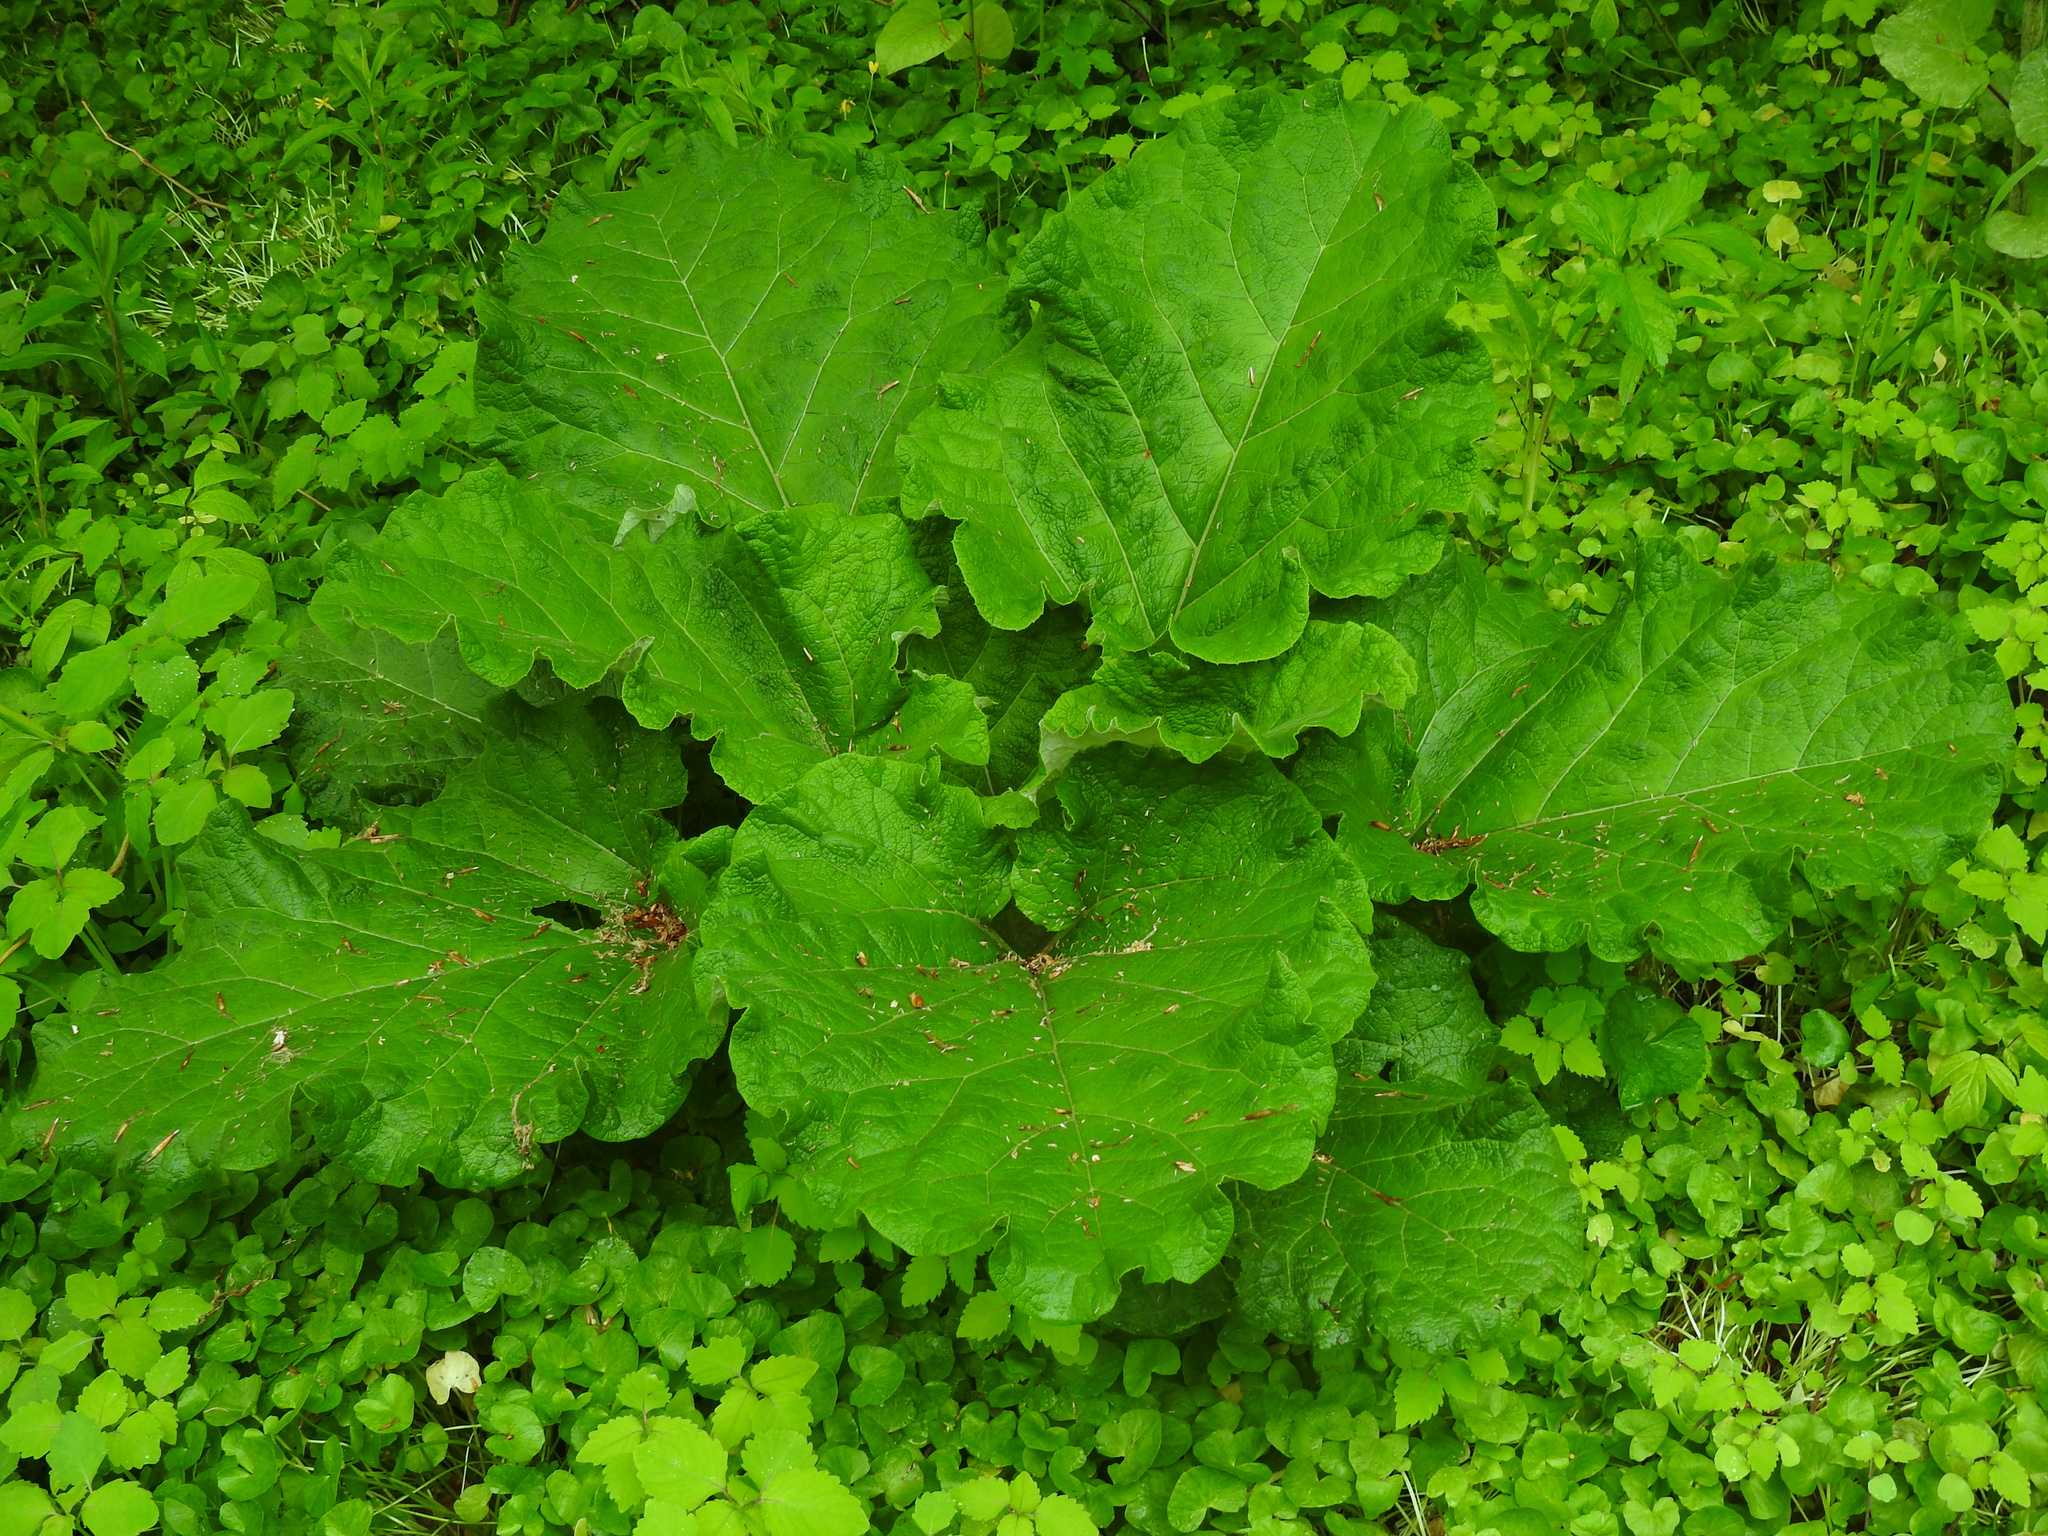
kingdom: Plantae
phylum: Tracheophyta
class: Magnoliopsida
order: Asterales
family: Asteraceae
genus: Arctium
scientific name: Arctium
